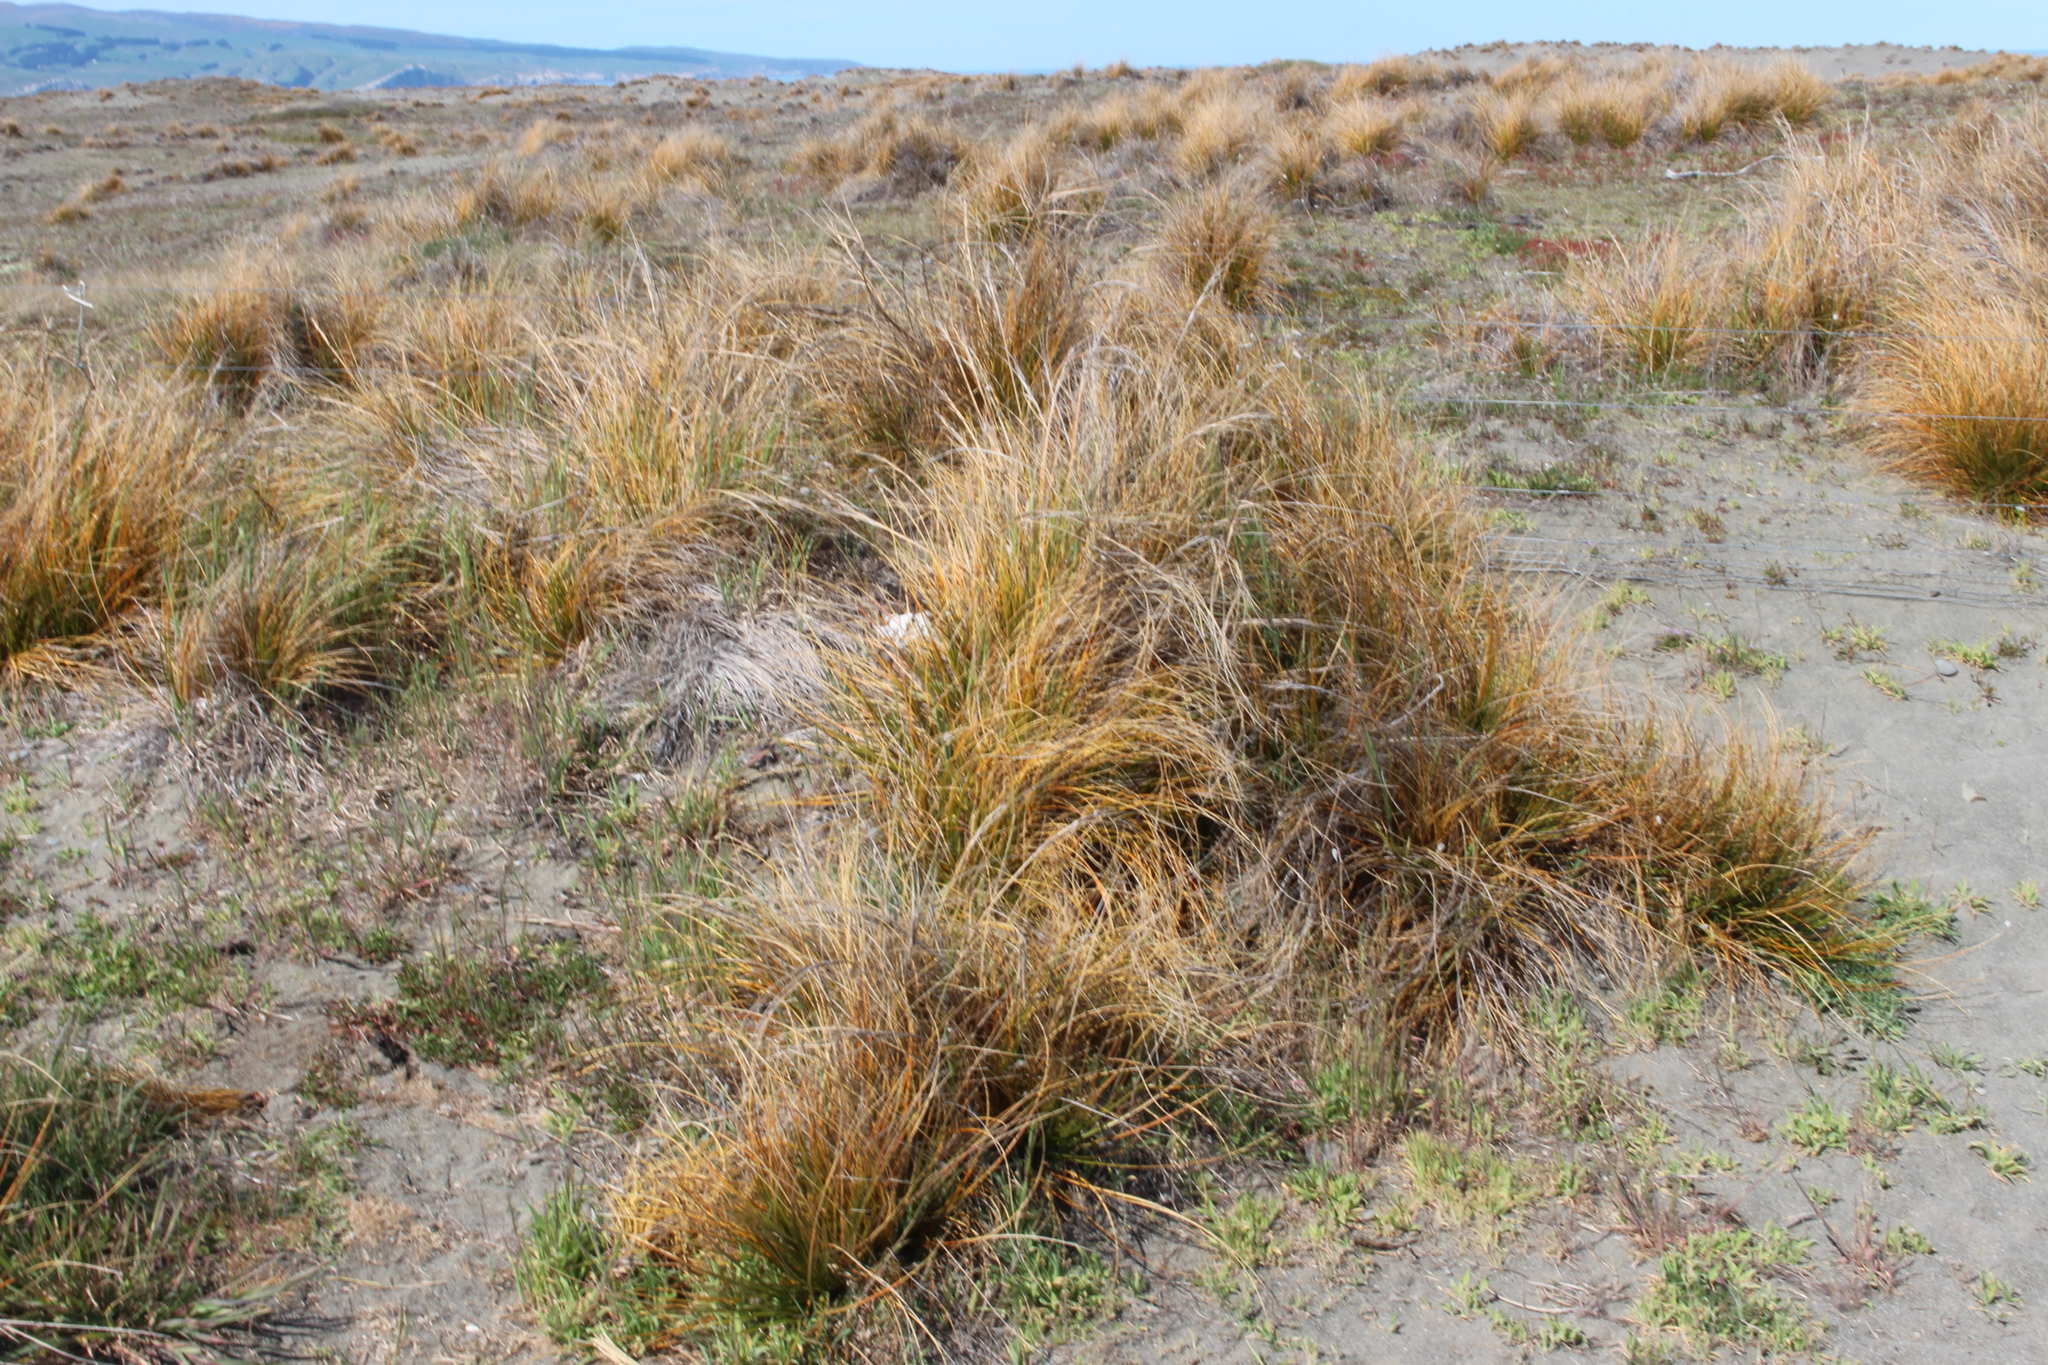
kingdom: Plantae
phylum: Tracheophyta
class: Liliopsida
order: Poales
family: Cyperaceae
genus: Ficinia
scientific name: Ficinia spiralis
